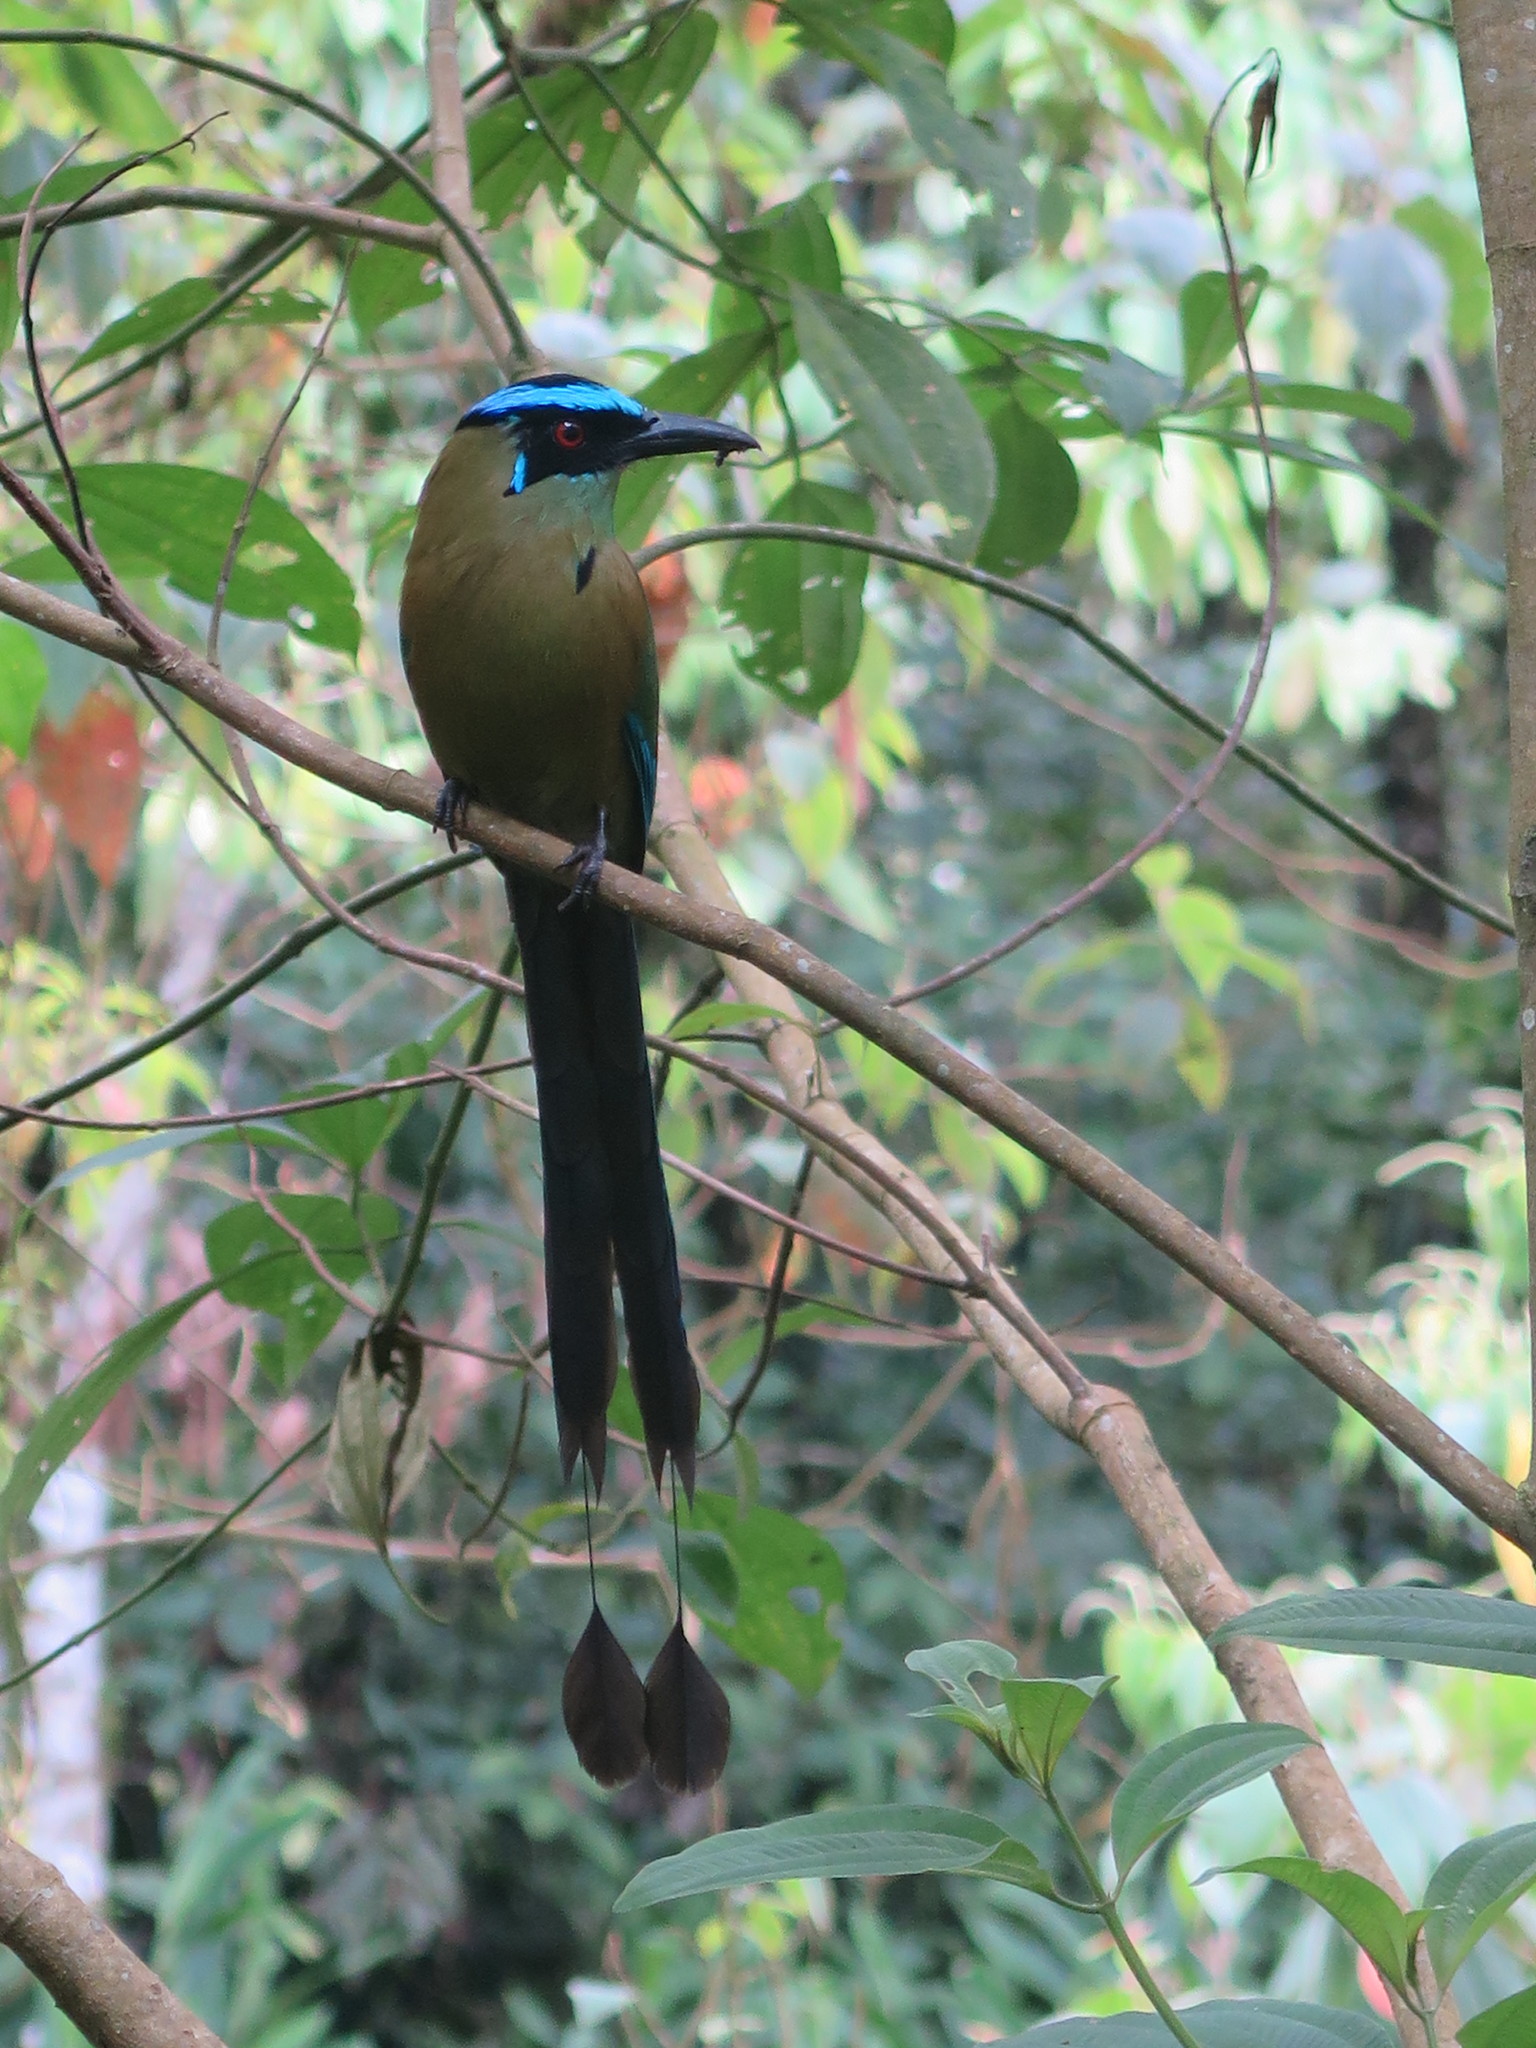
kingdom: Animalia
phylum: Chordata
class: Aves
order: Coraciiformes
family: Momotidae
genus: Momotus
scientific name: Momotus aequatorialis
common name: Andean motmot
